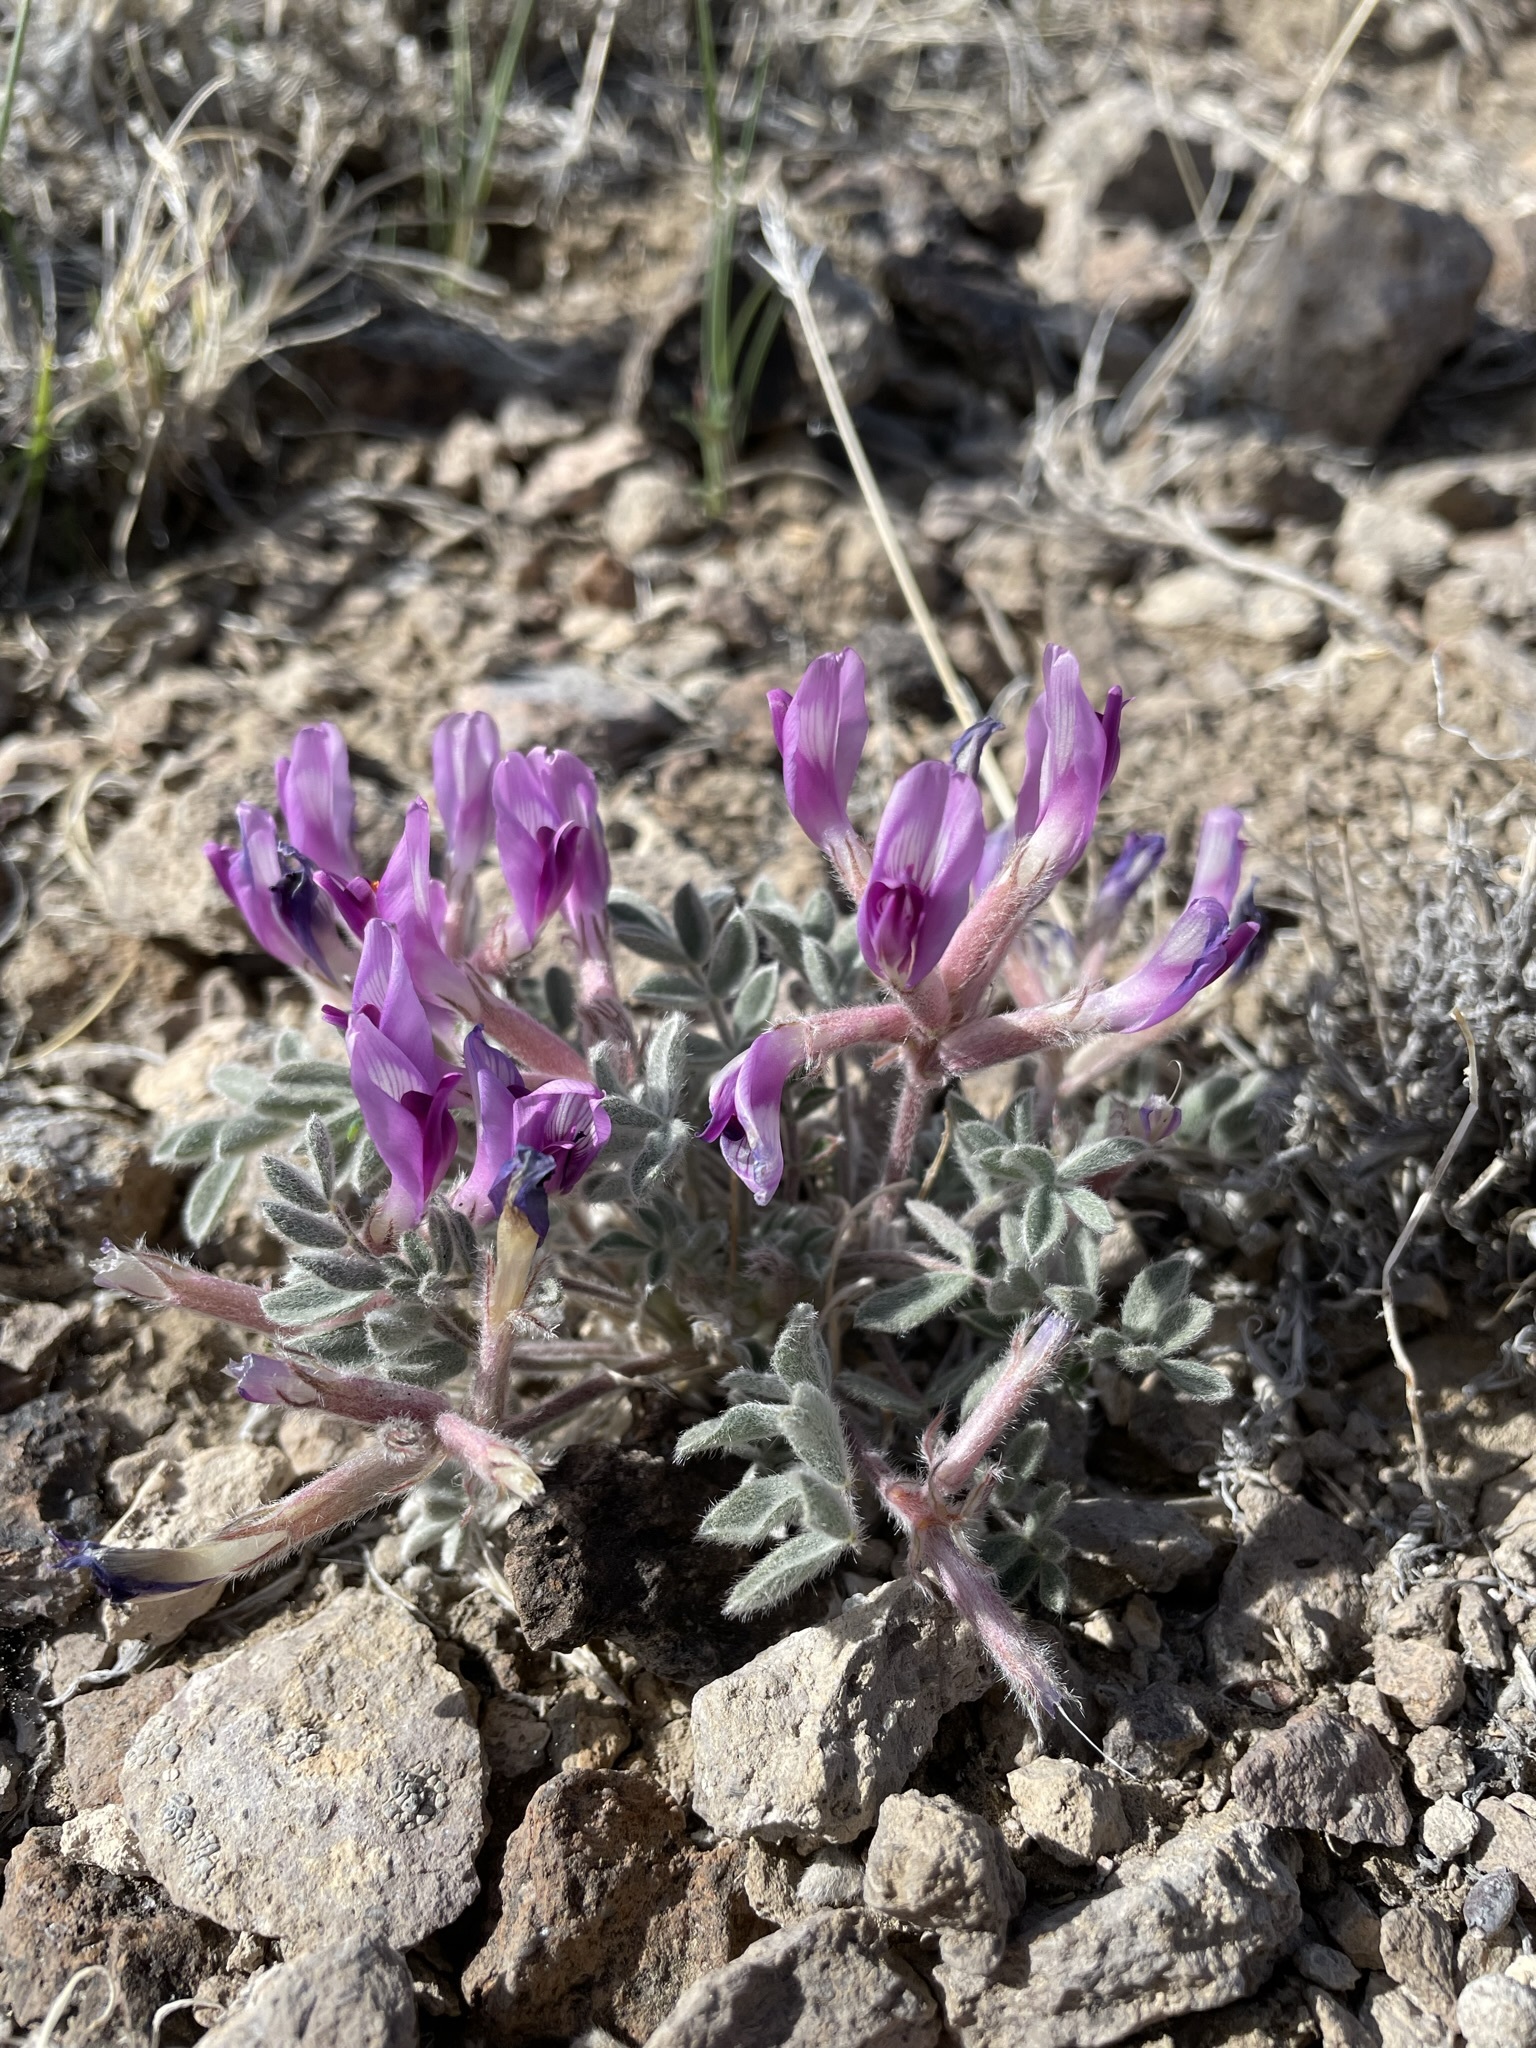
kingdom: Plantae
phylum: Tracheophyta
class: Magnoliopsida
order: Fabales
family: Fabaceae
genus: Astragalus
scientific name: Astragalus purshii
